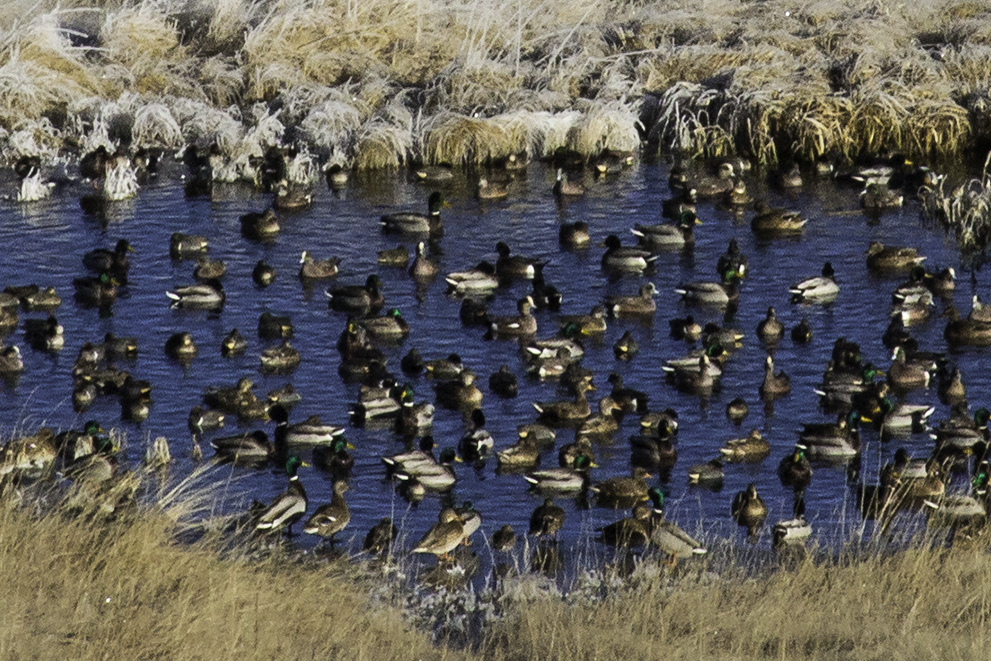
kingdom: Animalia
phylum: Chordata
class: Aves
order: Anseriformes
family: Anatidae
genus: Anas
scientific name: Anas platyrhynchos
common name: Mallard
